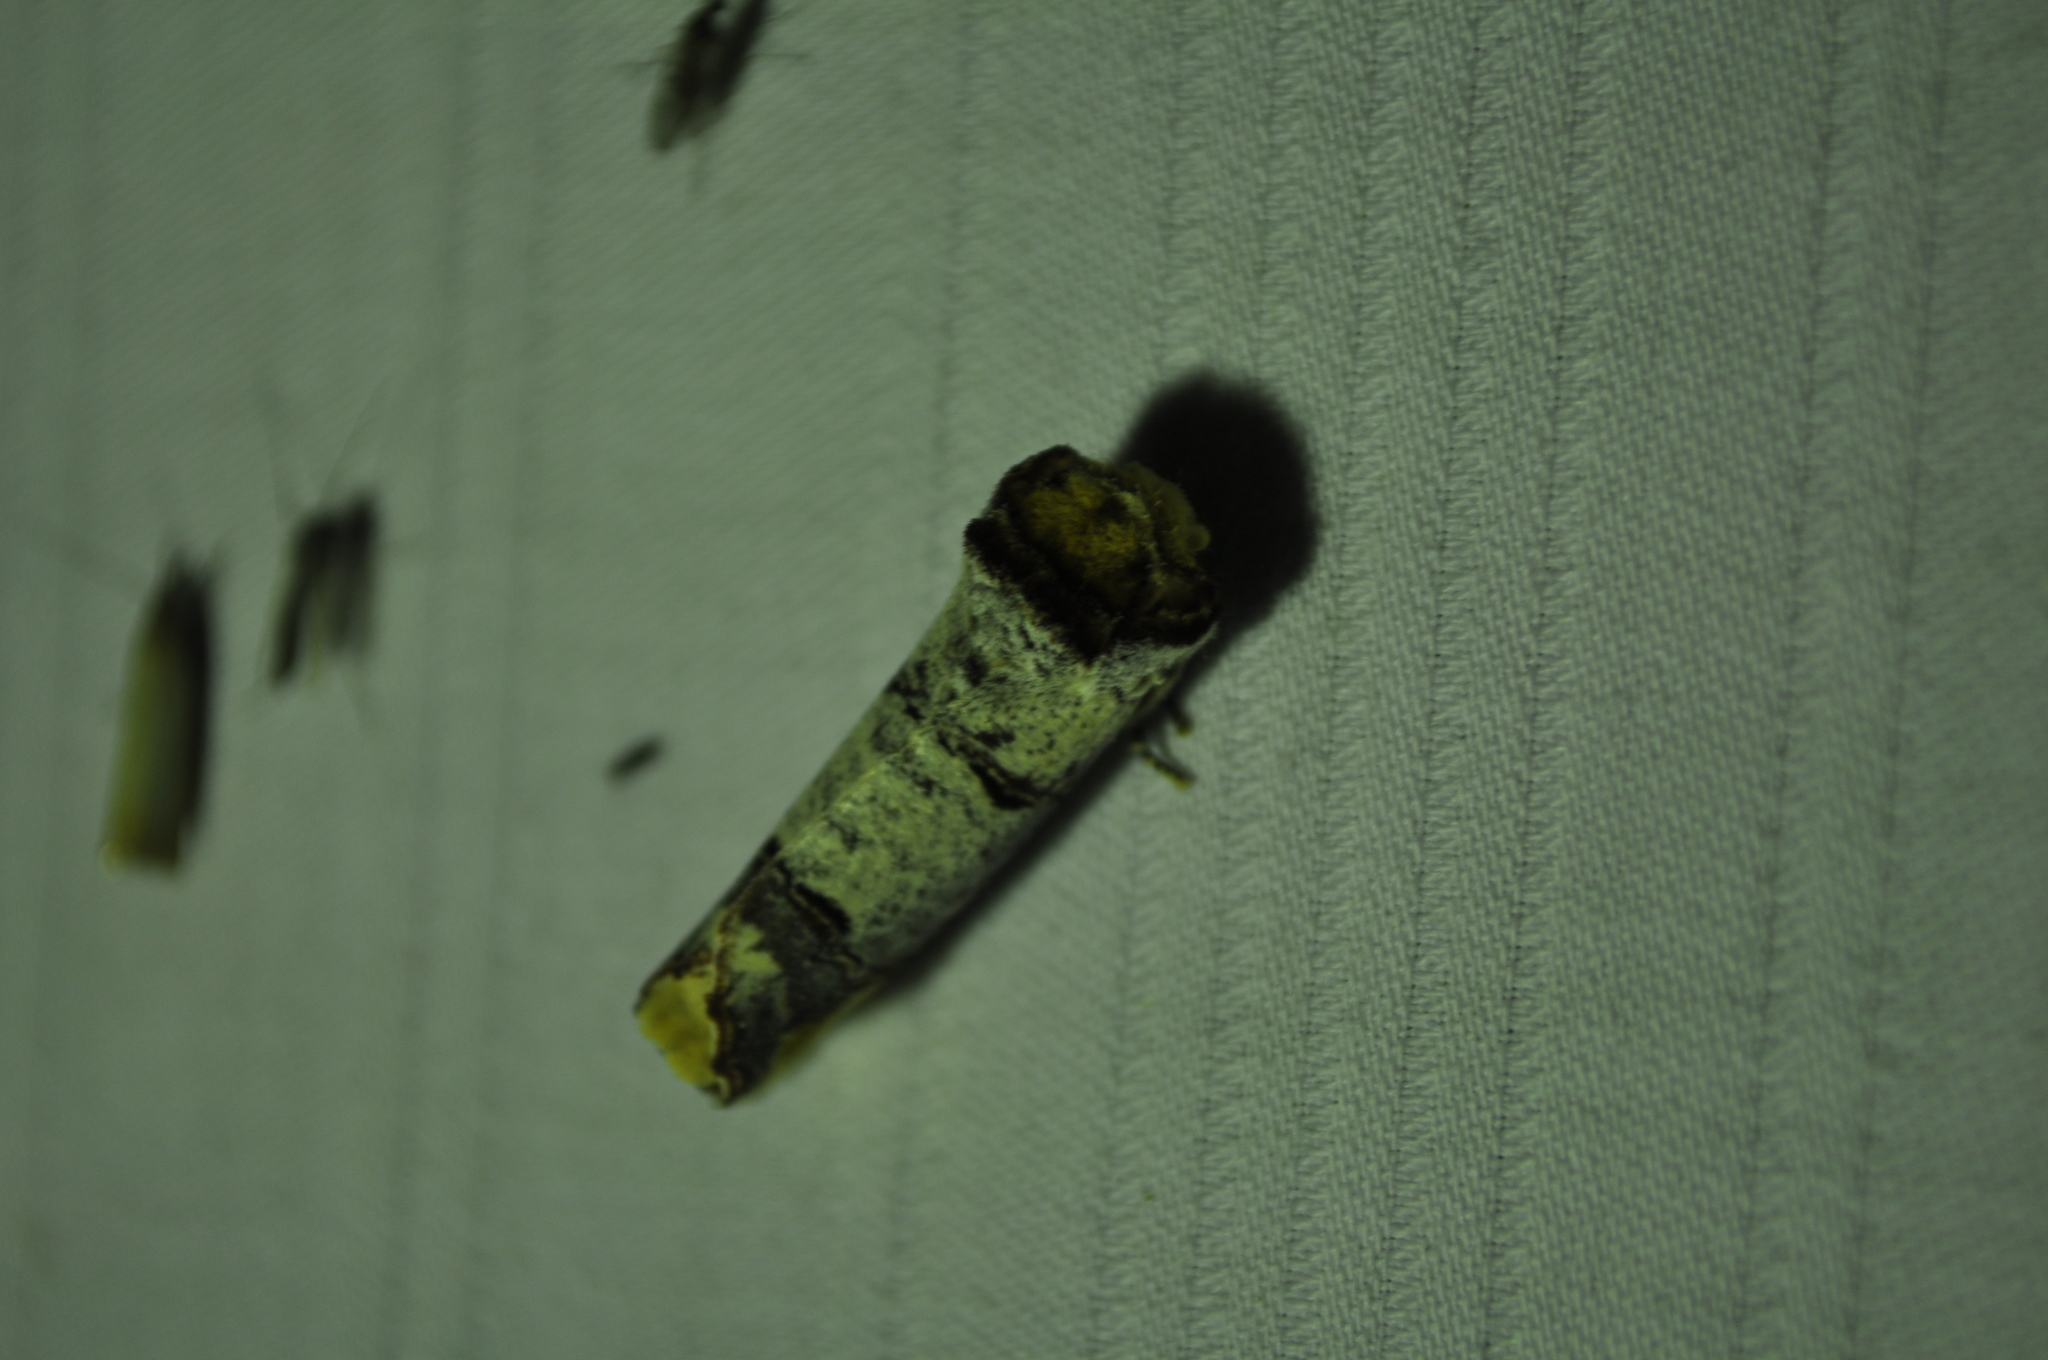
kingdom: Animalia
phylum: Arthropoda
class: Insecta
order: Lepidoptera
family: Notodontidae
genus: Phalera
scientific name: Phalera bucephala
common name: Buff-tip
